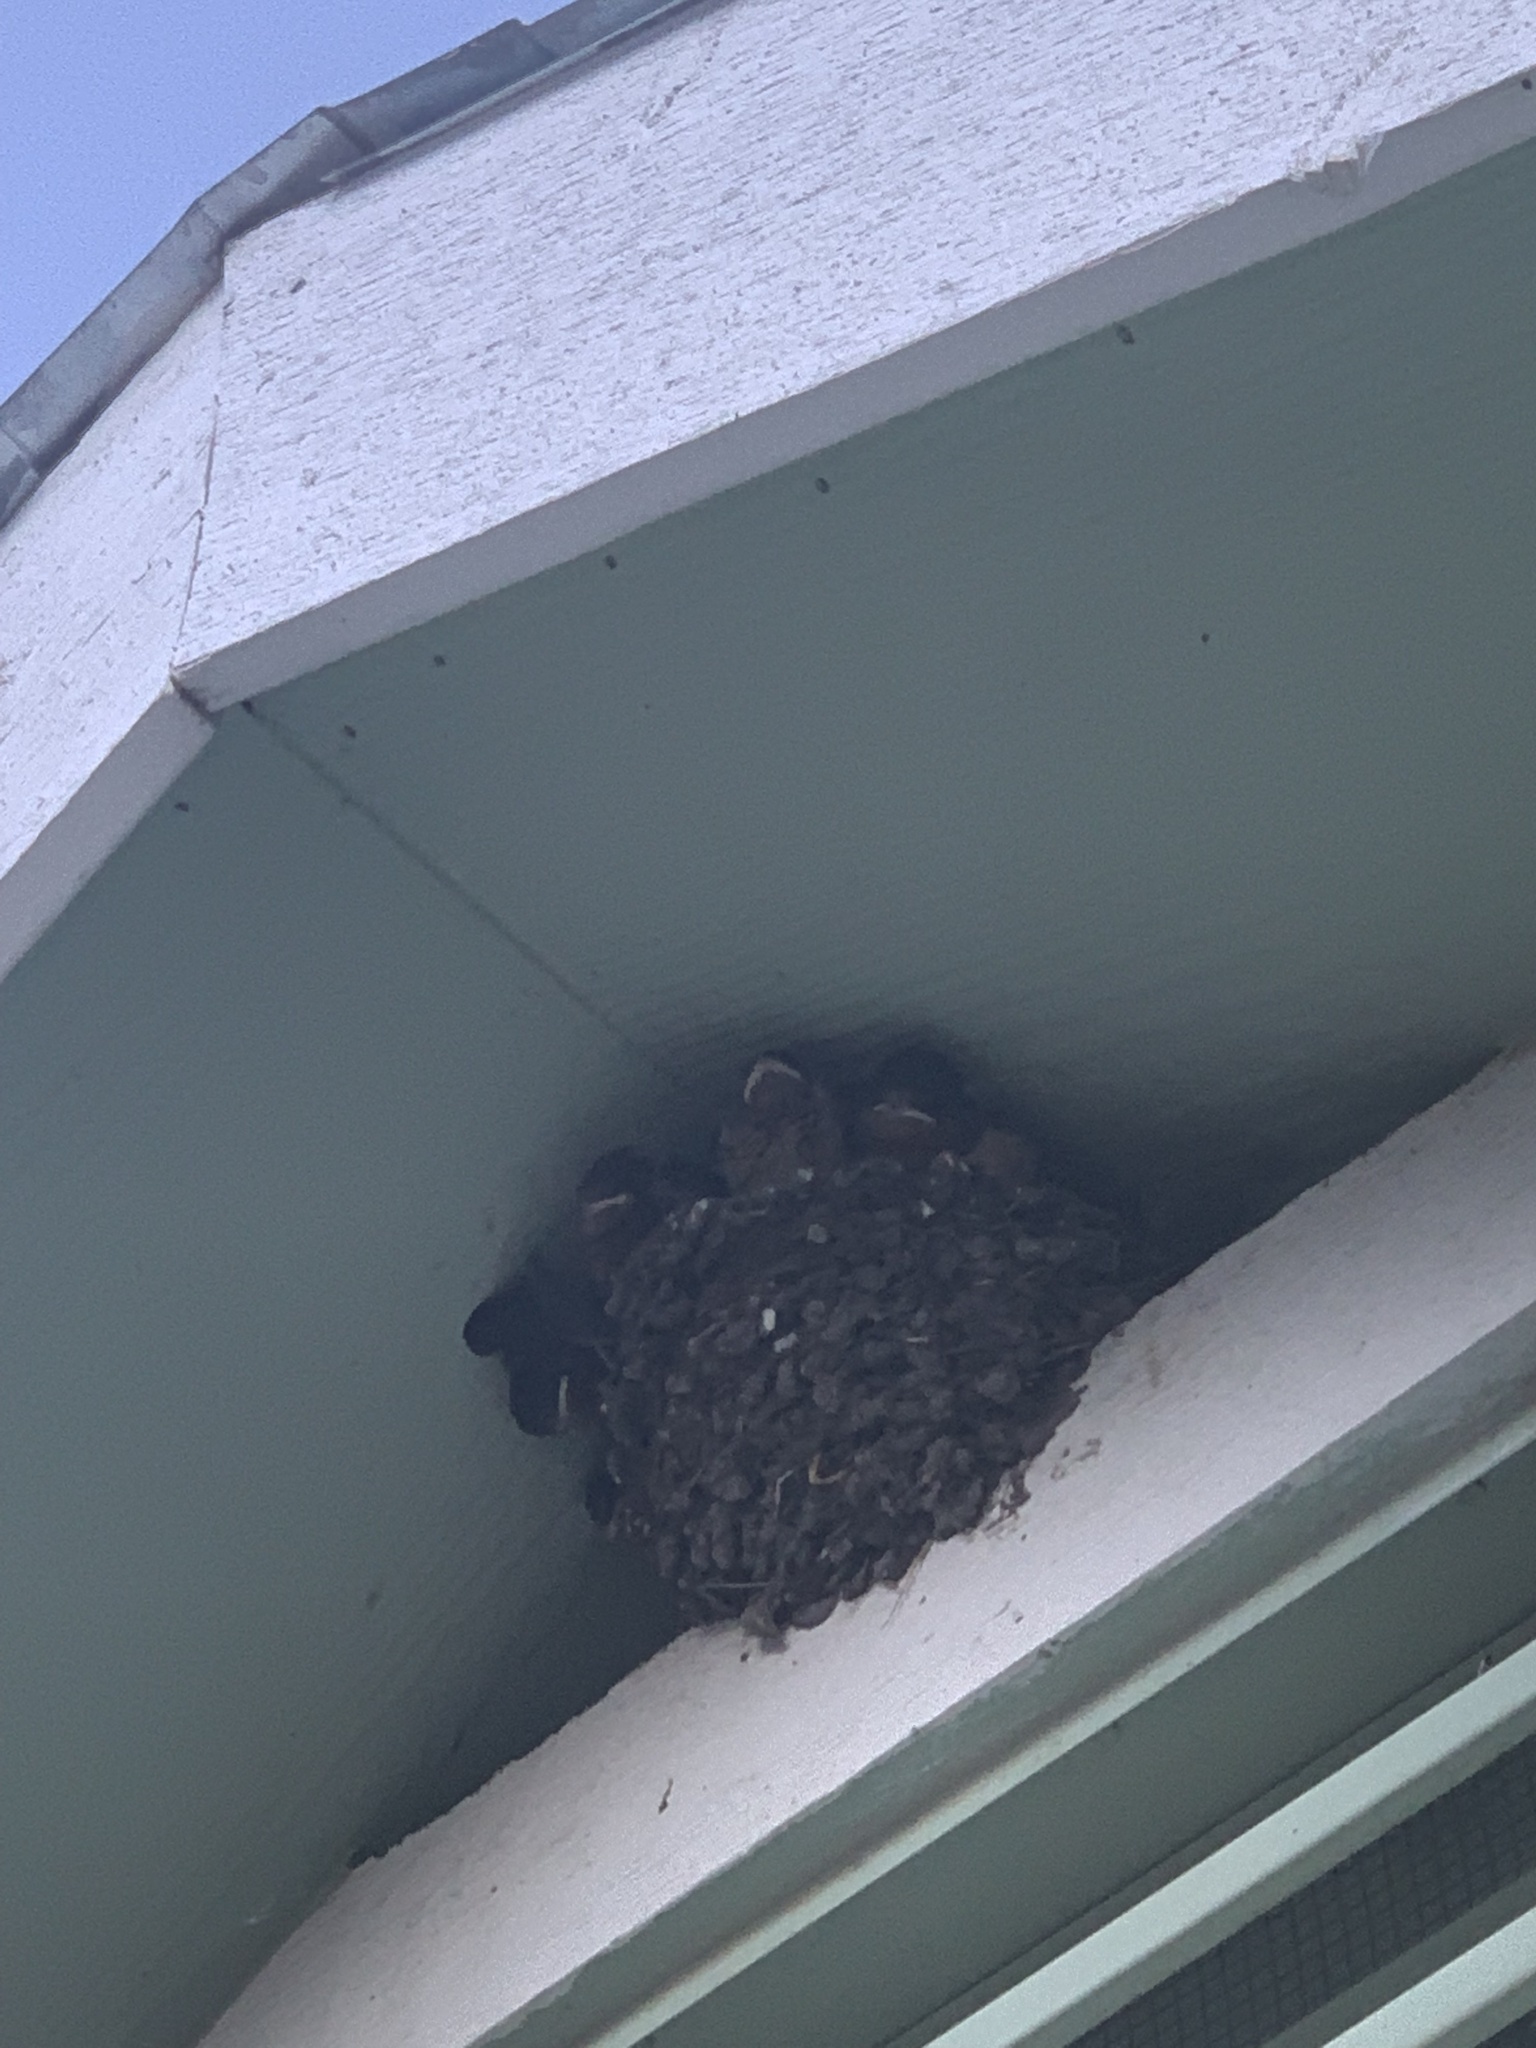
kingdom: Animalia
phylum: Chordata
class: Aves
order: Passeriformes
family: Hirundinidae
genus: Hirundo
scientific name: Hirundo rustica
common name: Barn swallow
